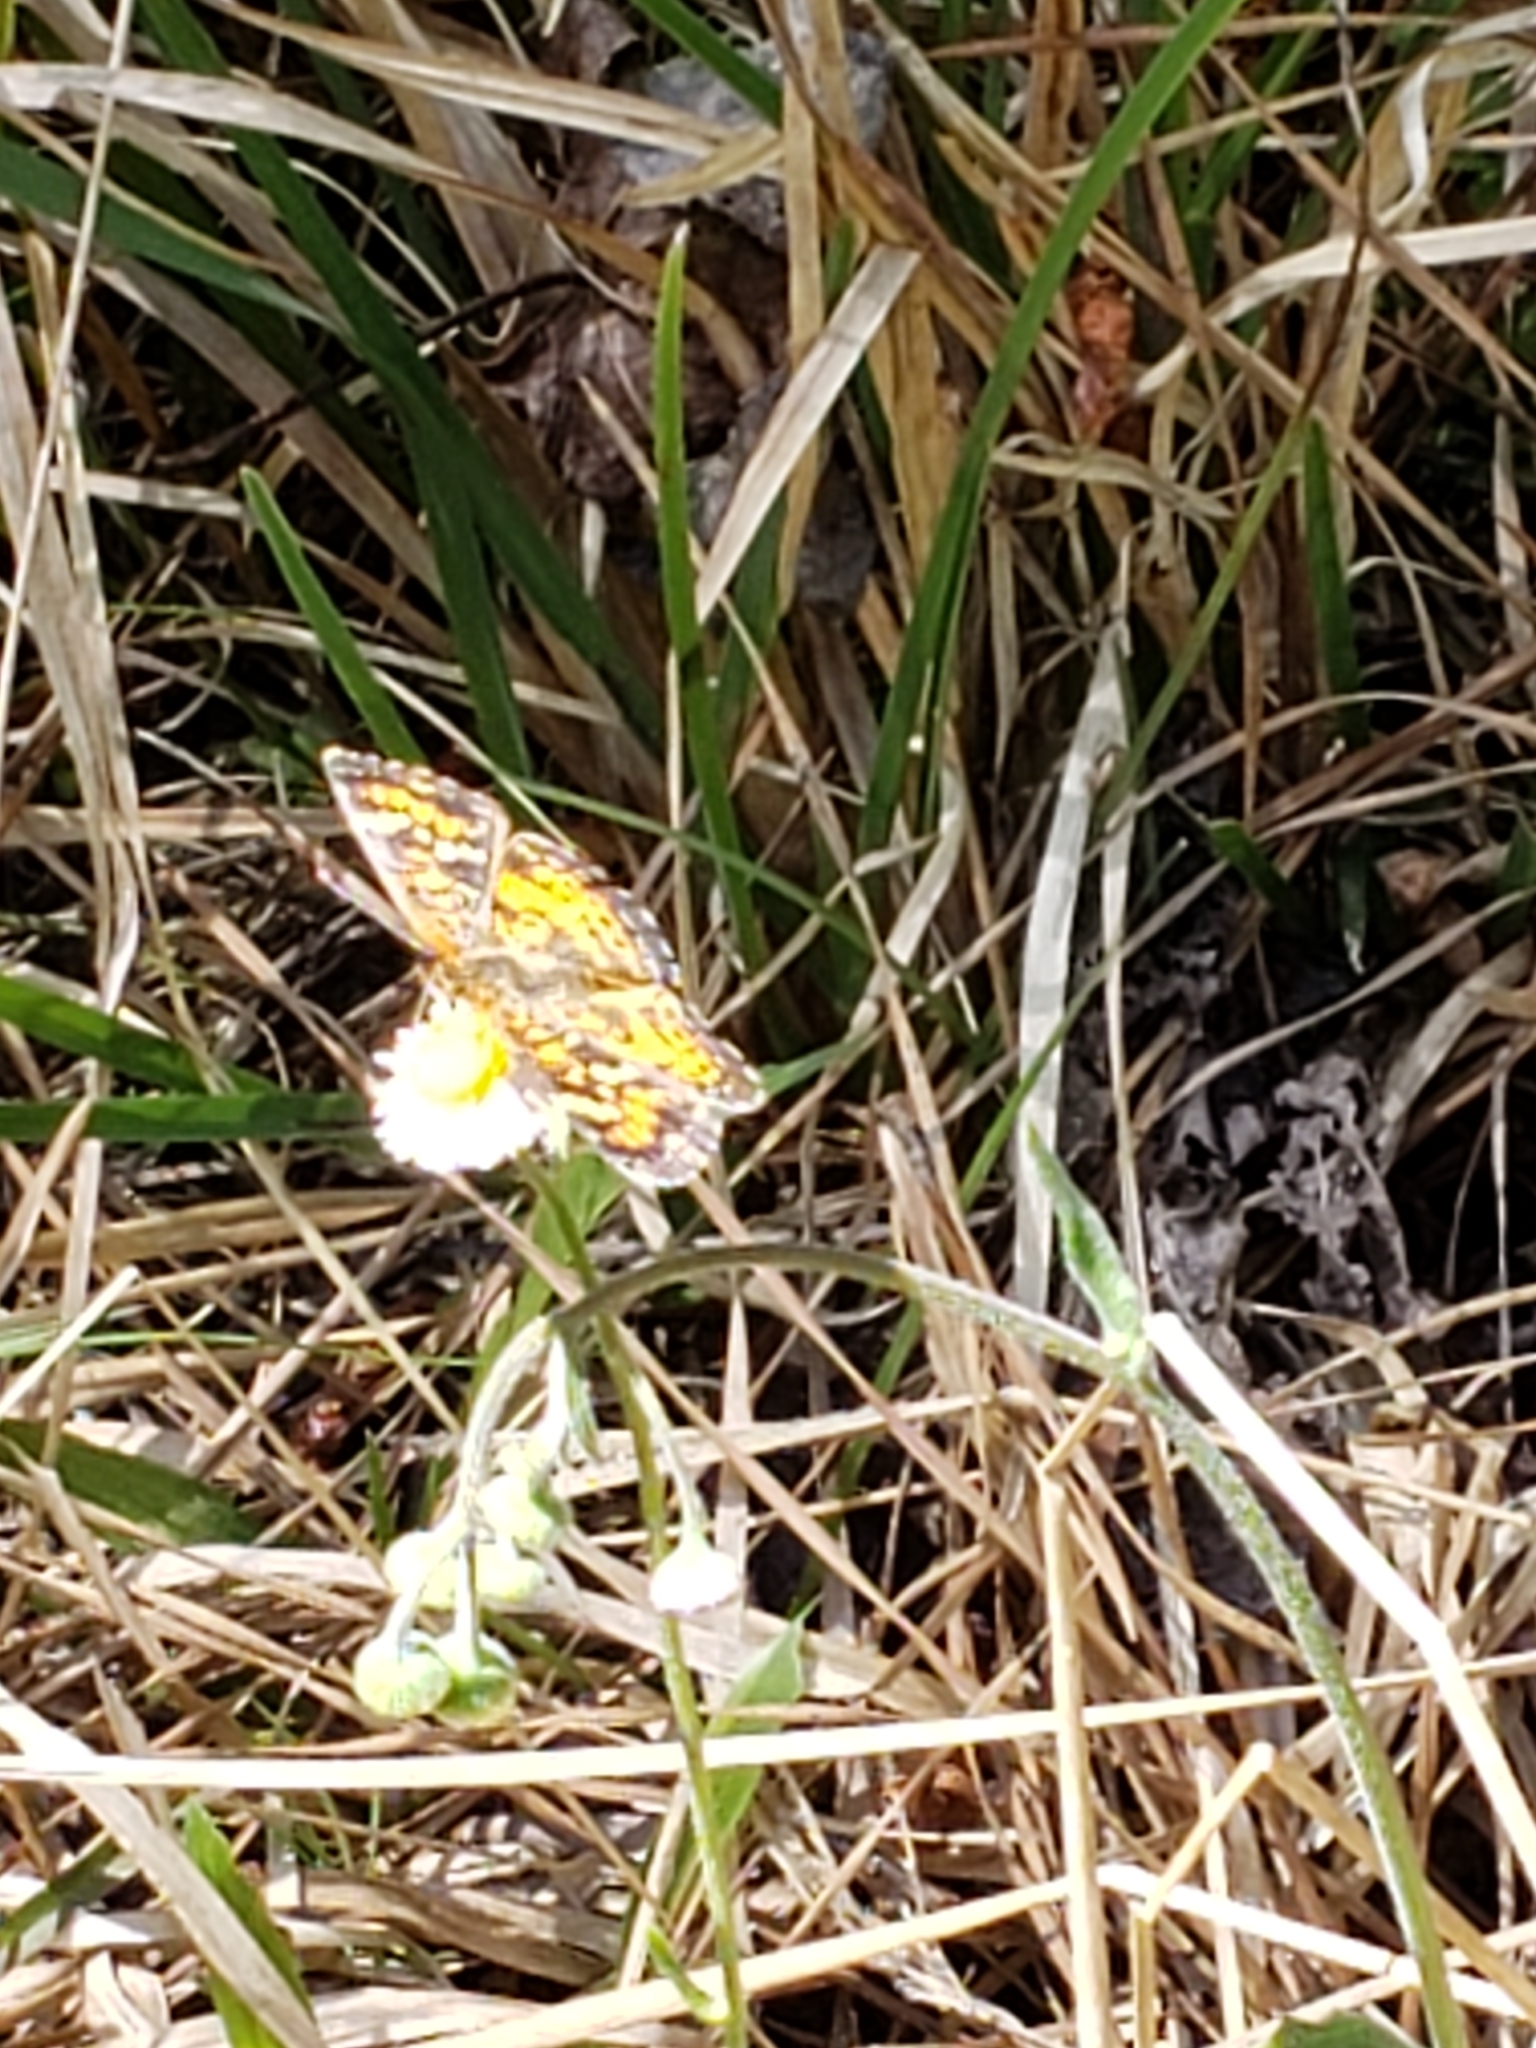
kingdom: Animalia
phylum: Arthropoda
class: Insecta
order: Lepidoptera
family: Nymphalidae
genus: Phyciodes
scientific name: Phyciodes phaon
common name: Phaon crescent
